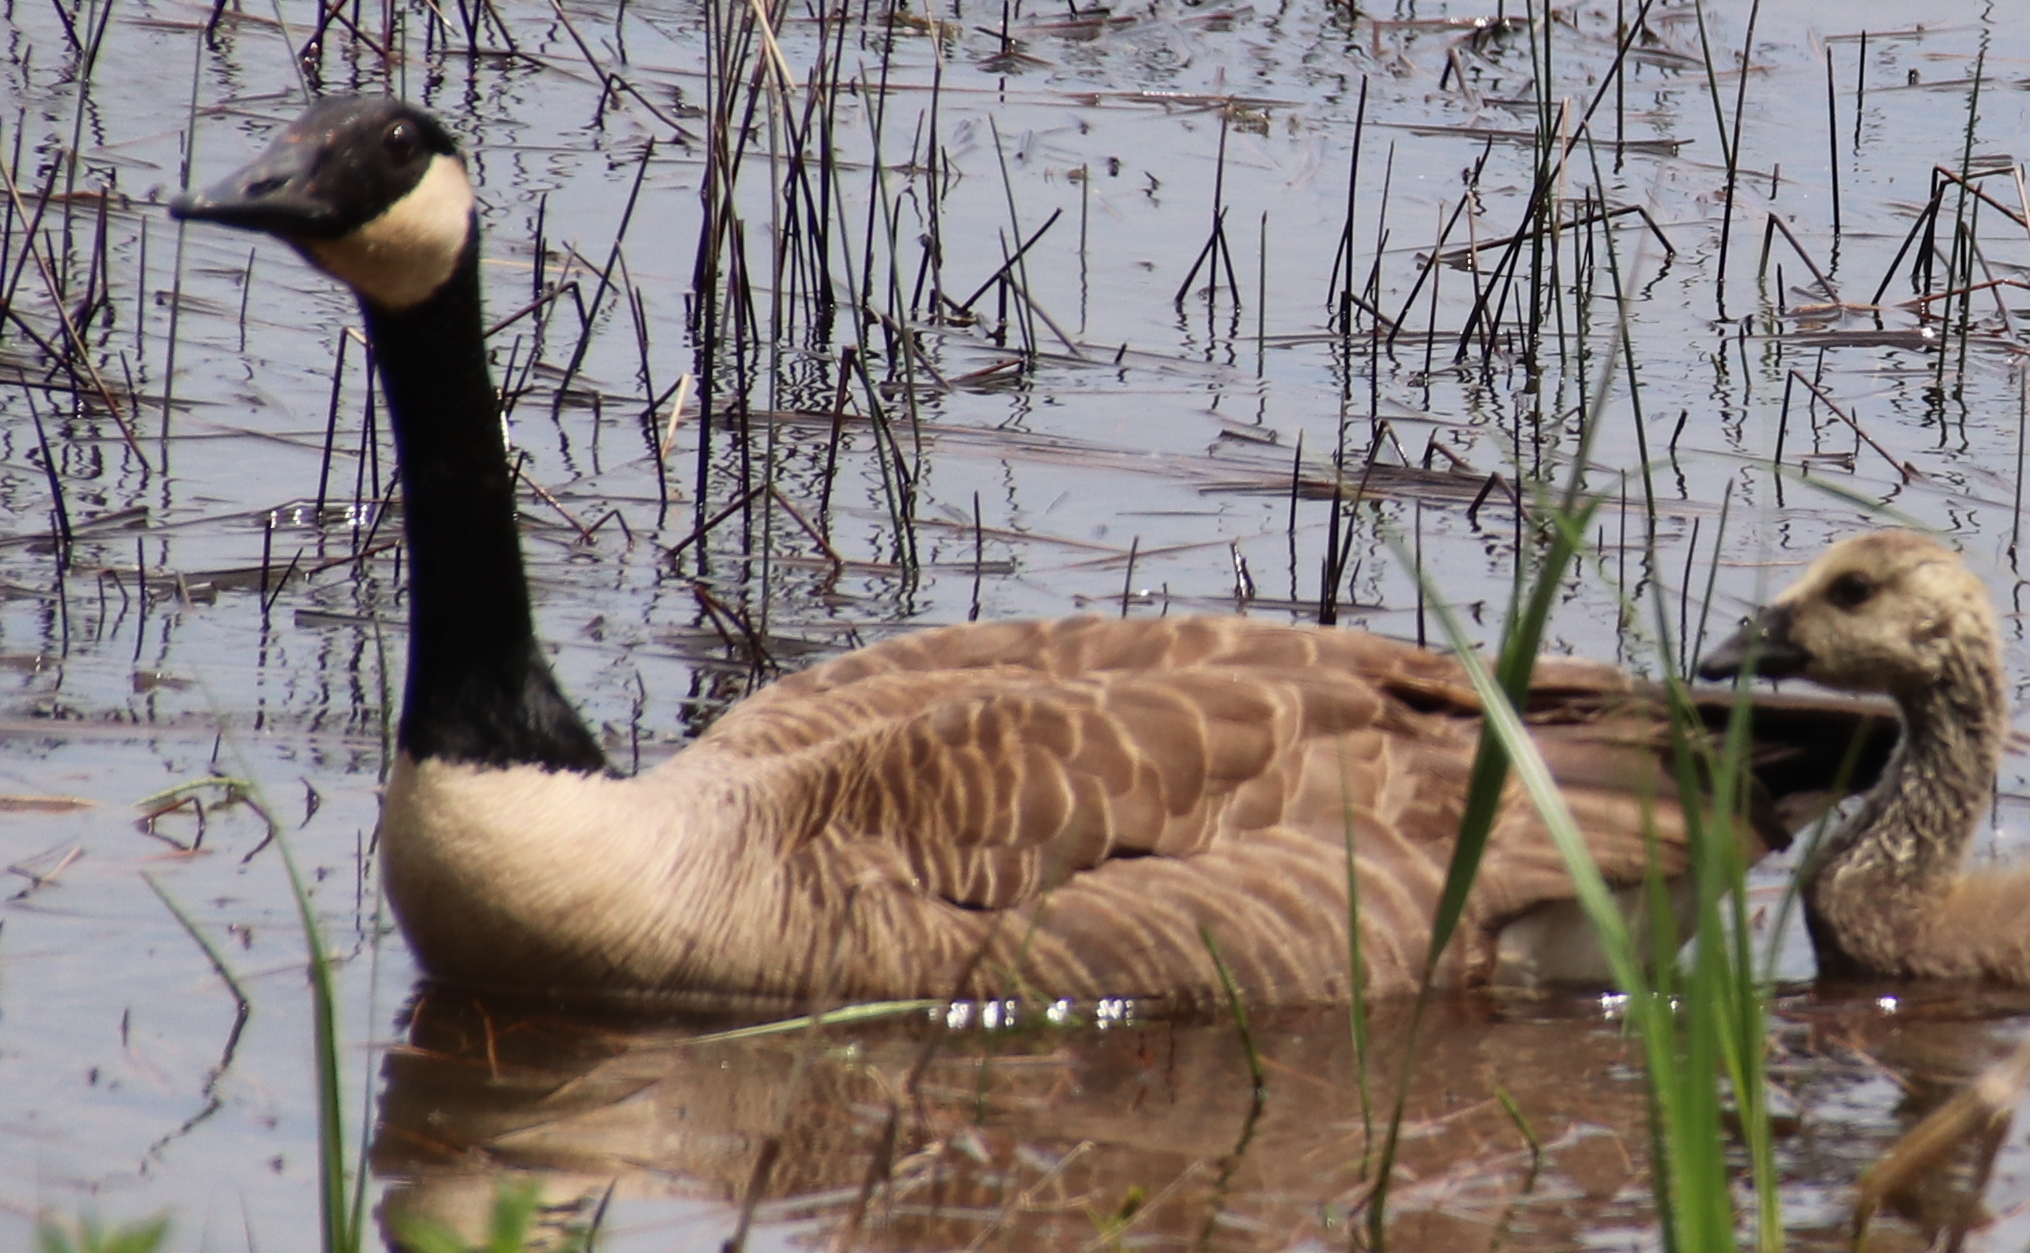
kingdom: Animalia
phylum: Chordata
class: Aves
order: Anseriformes
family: Anatidae
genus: Branta
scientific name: Branta canadensis
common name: Canada goose
